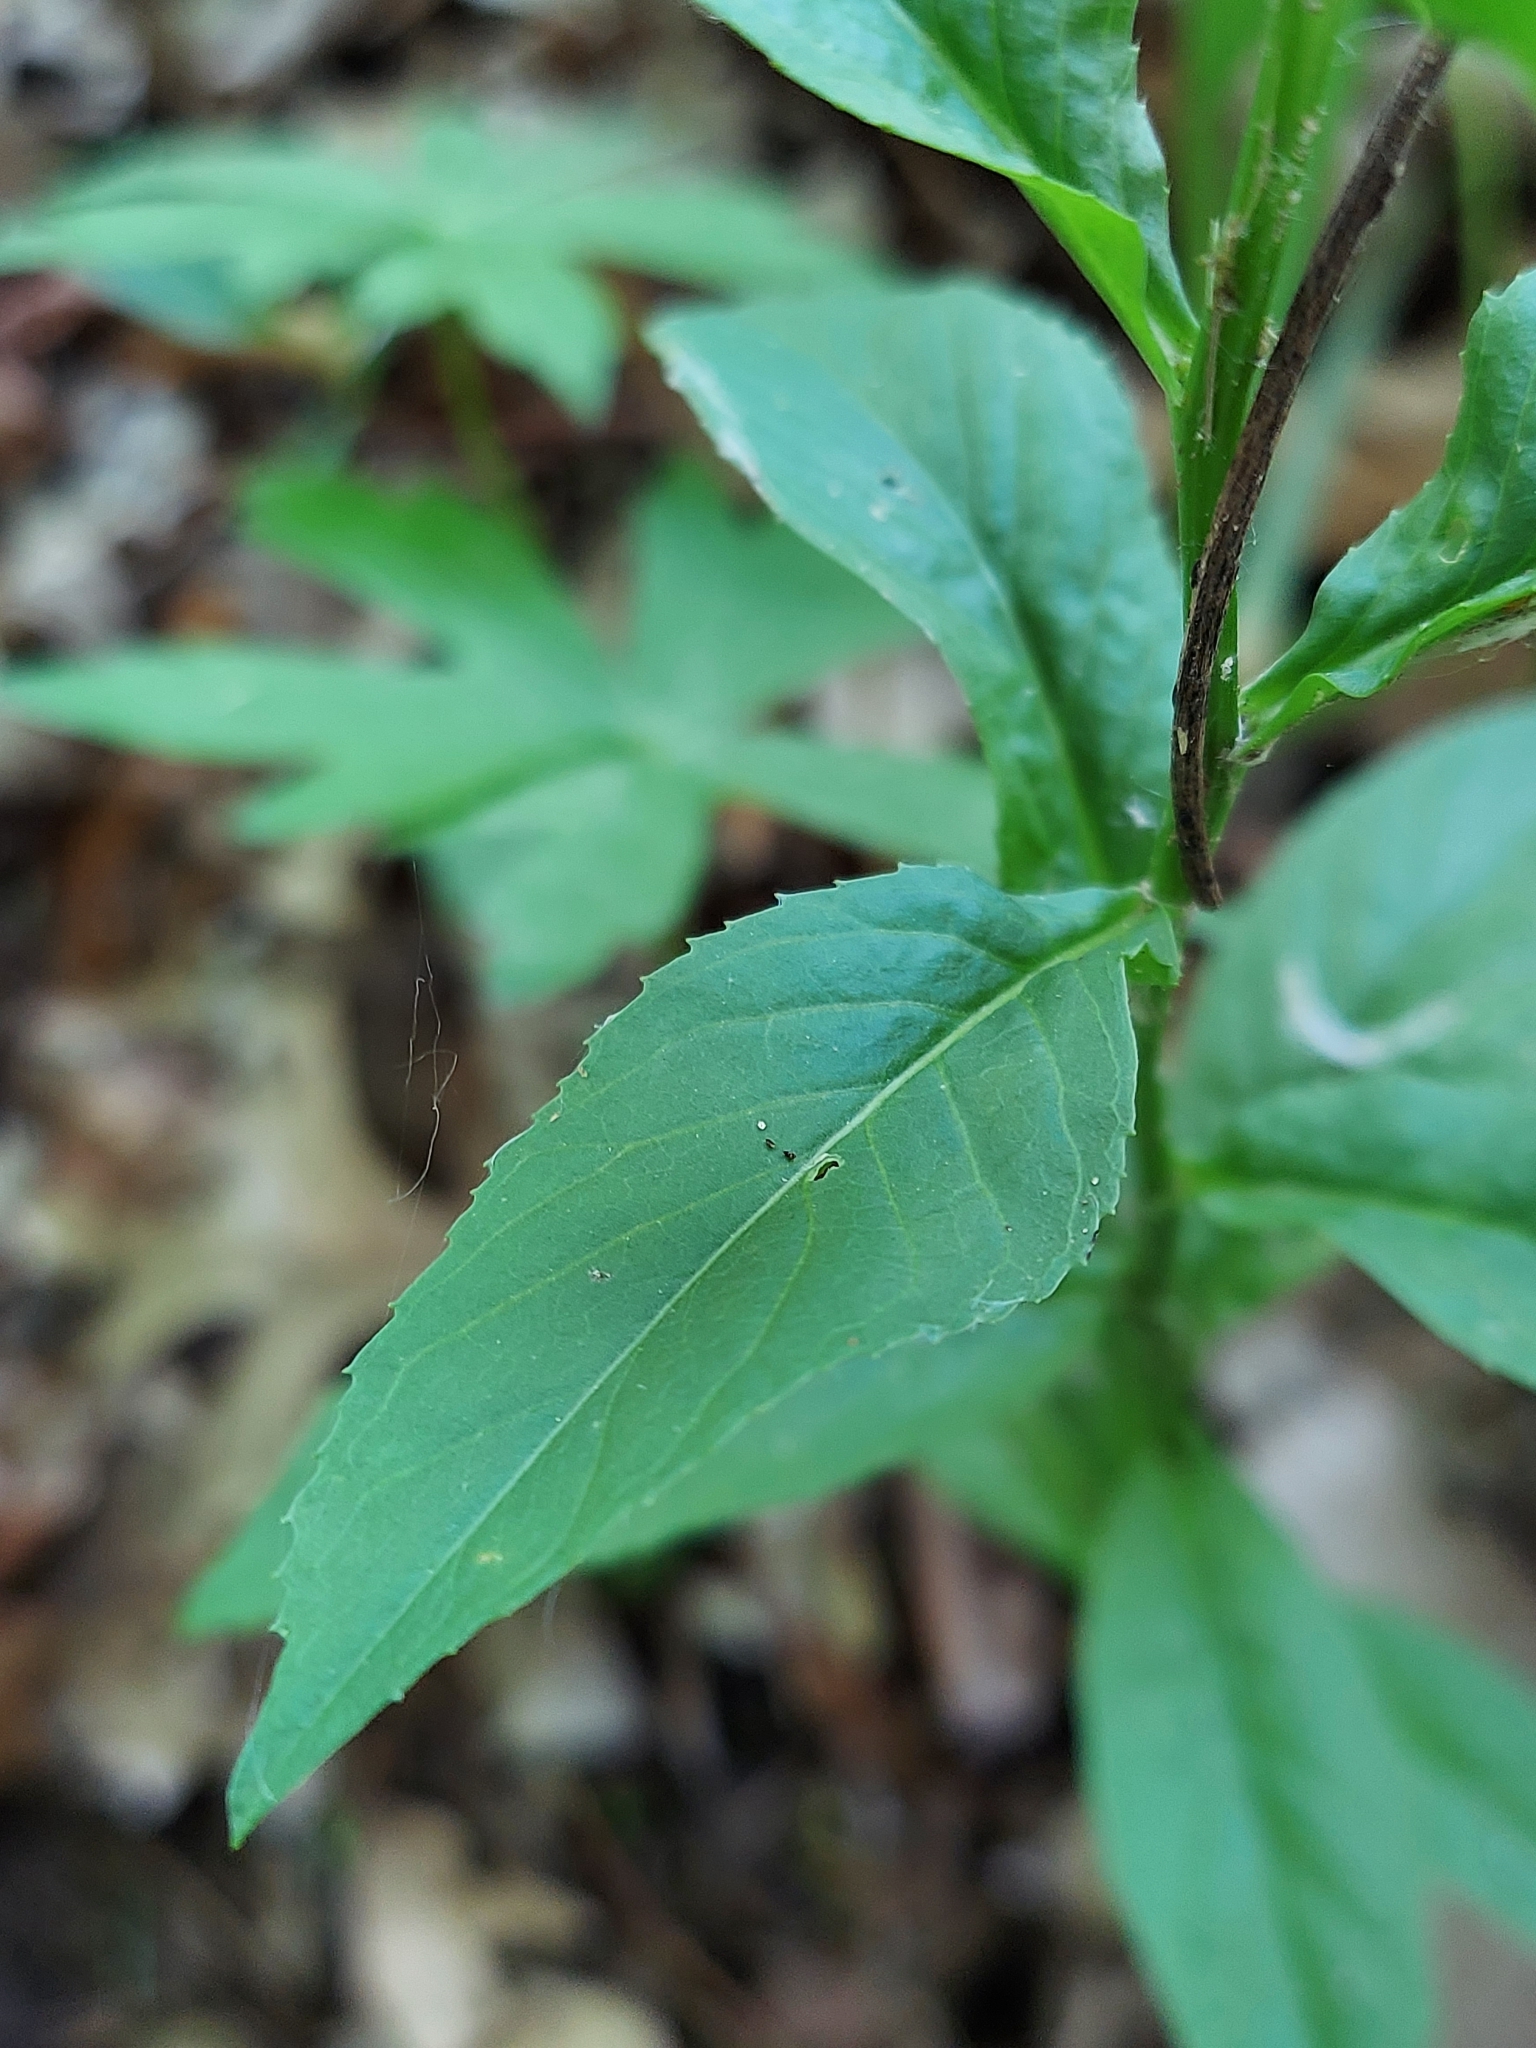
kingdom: Plantae
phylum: Tracheophyta
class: Magnoliopsida
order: Brassicales
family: Brassicaceae
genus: Iodanthus
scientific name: Iodanthus pinnatifidus
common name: Violet rocket
